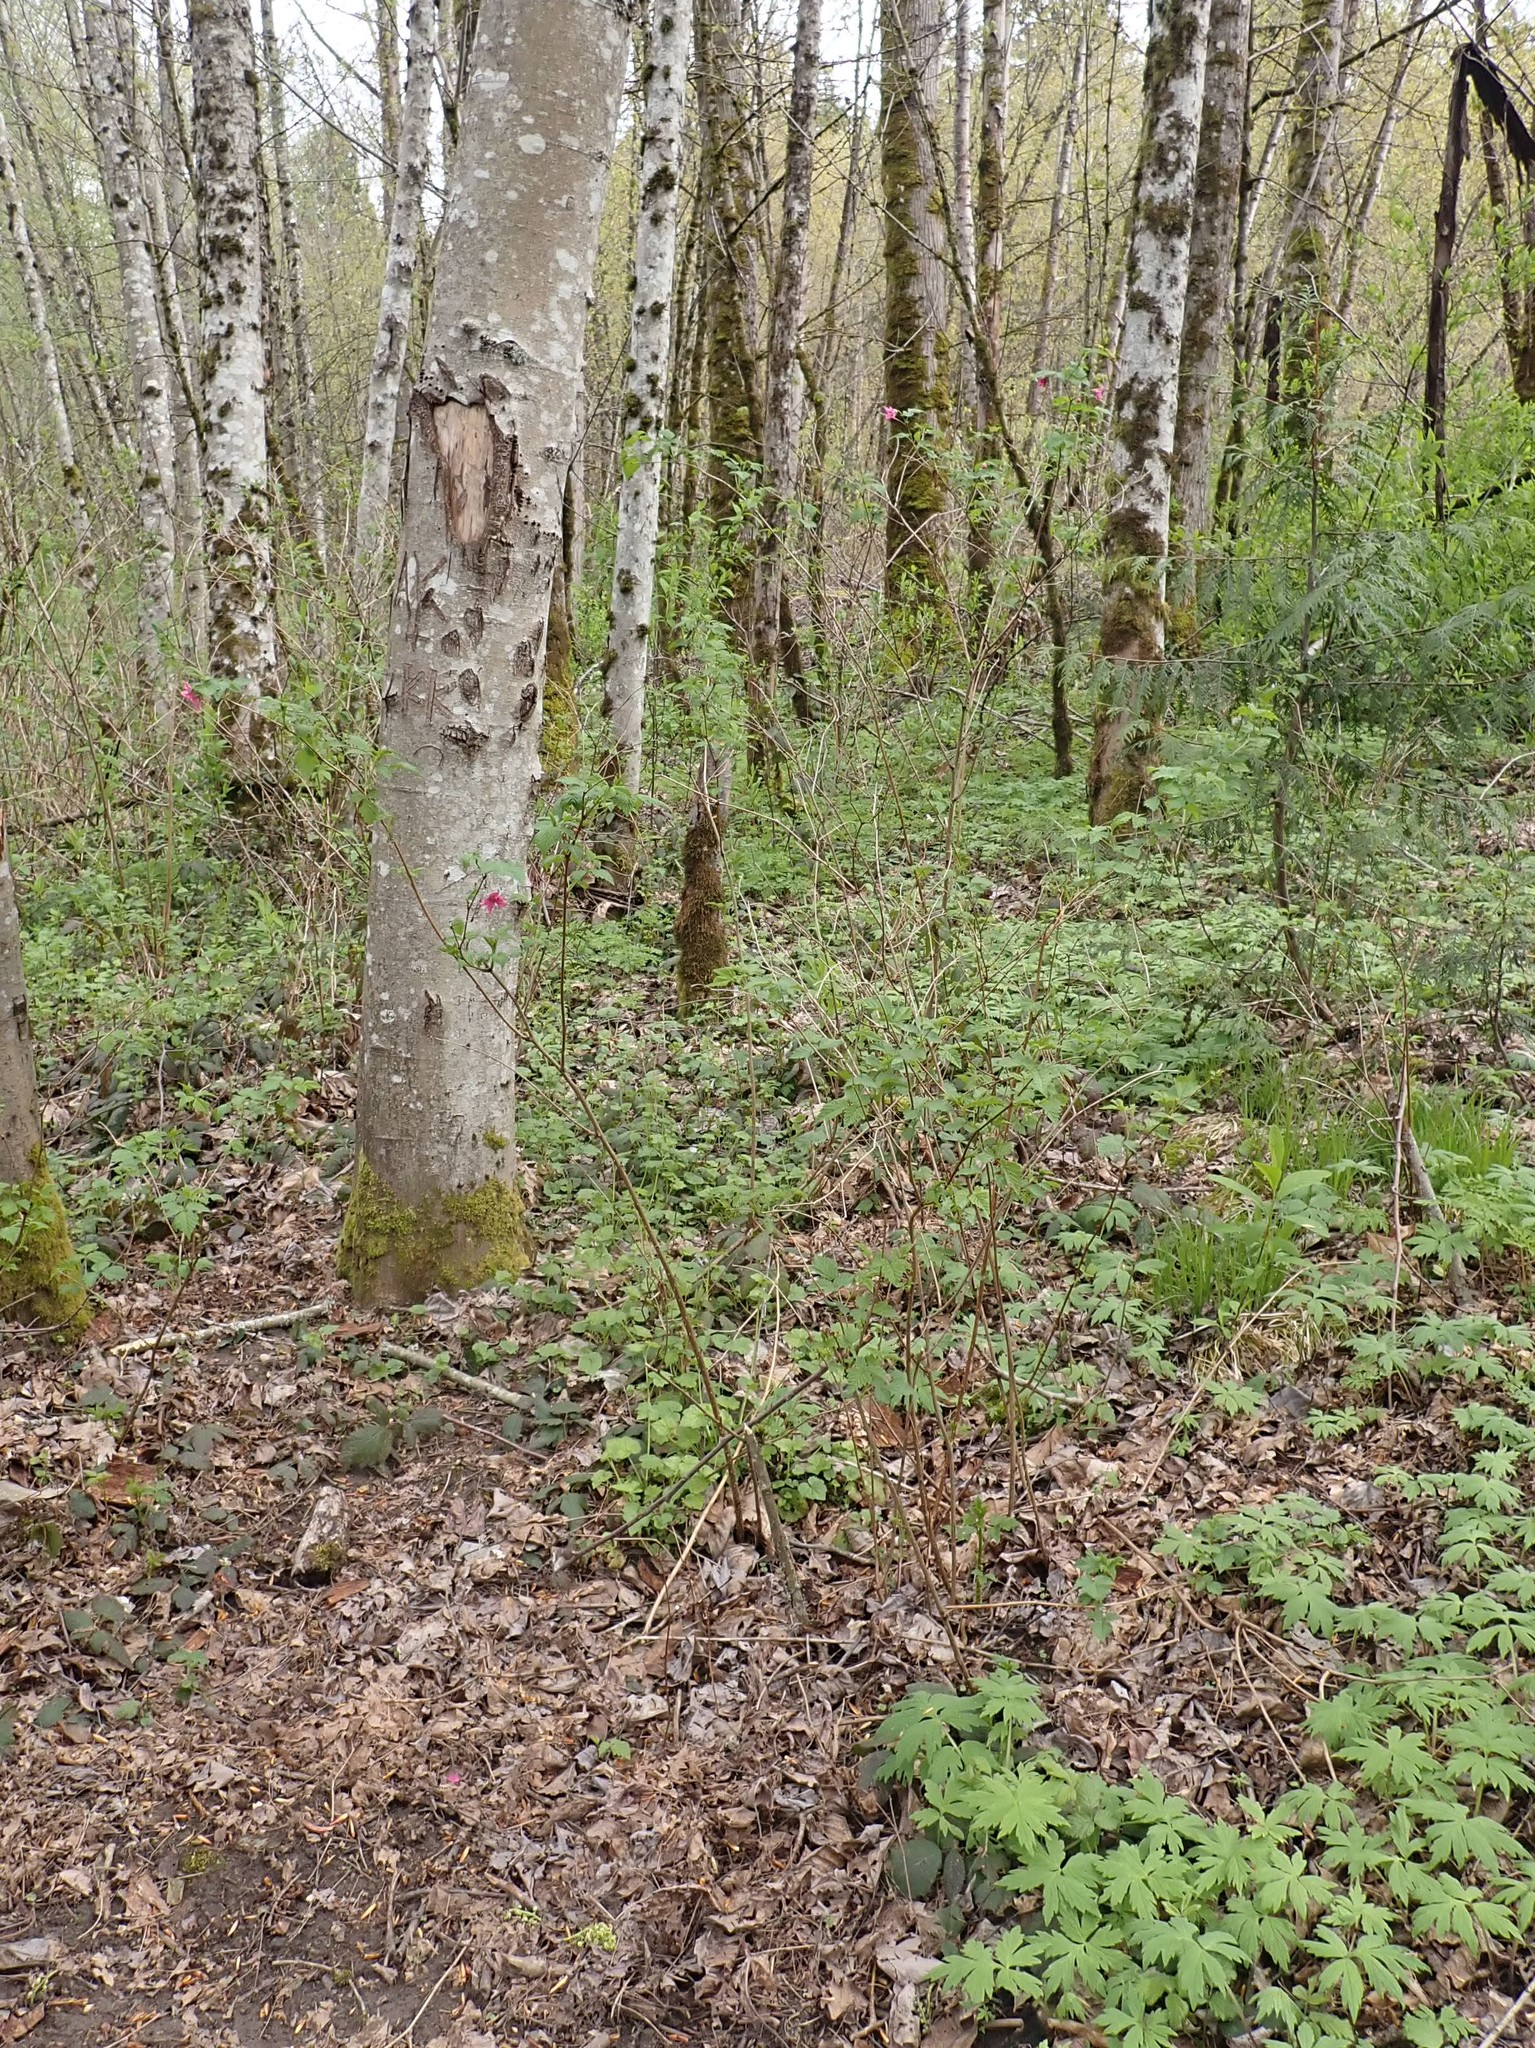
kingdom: Plantae
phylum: Tracheophyta
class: Magnoliopsida
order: Rosales
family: Rosaceae
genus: Rubus
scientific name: Rubus spectabilis
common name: Salmonberry
